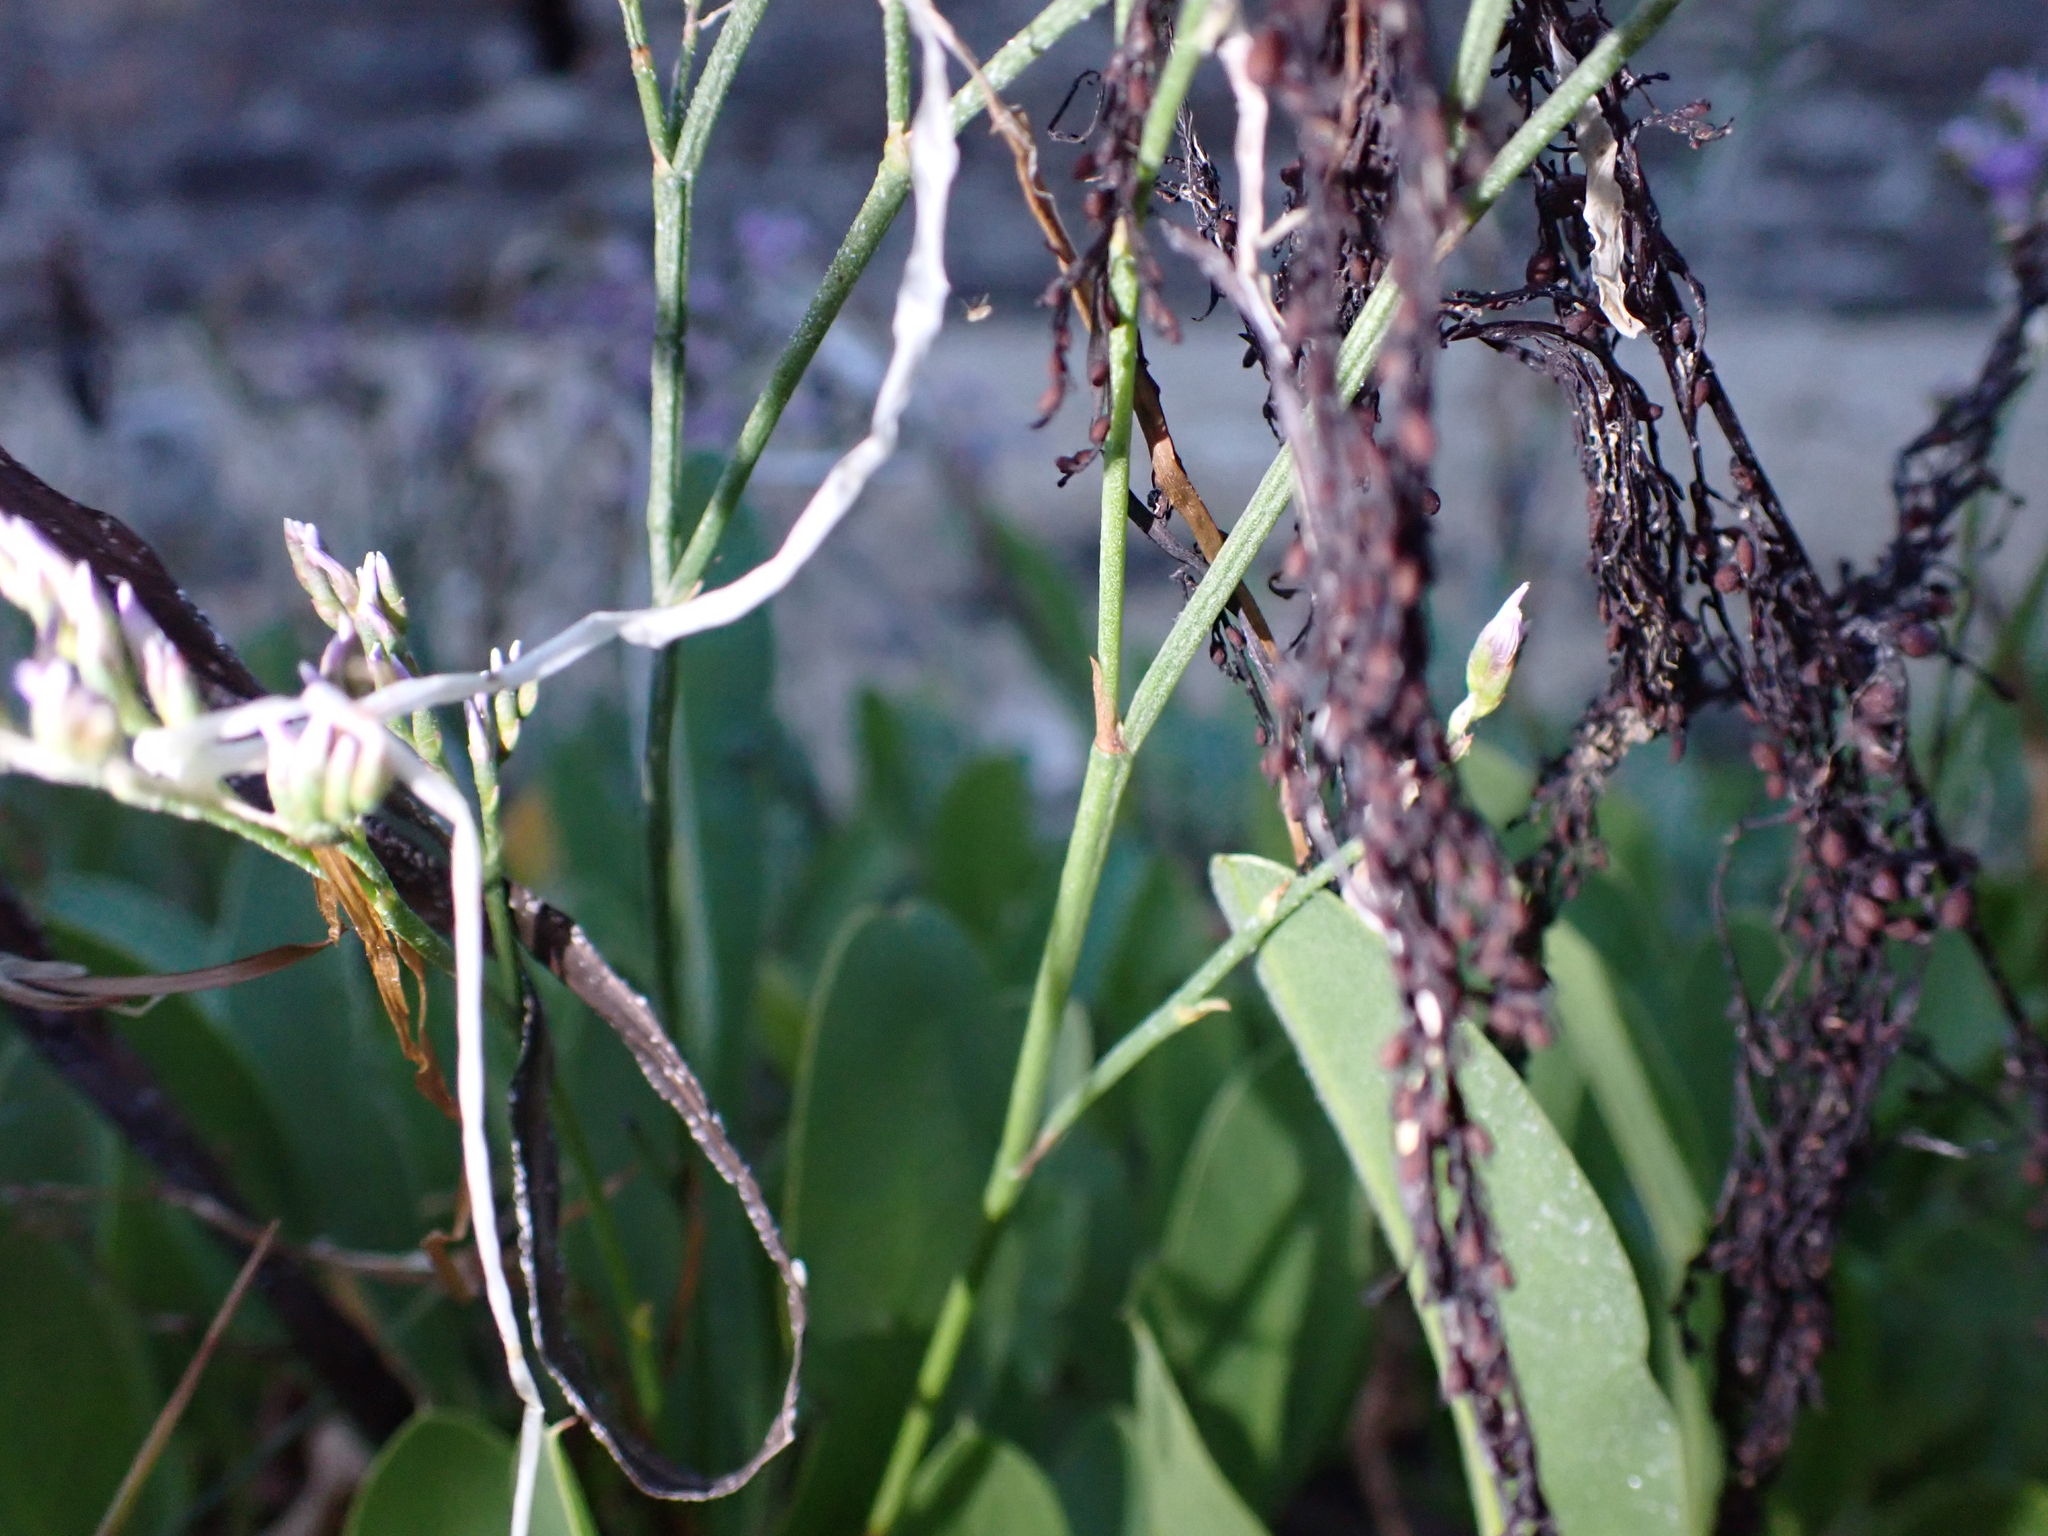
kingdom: Plantae
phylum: Tracheophyta
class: Magnoliopsida
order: Caryophyllales
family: Plumbaginaceae
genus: Limonium
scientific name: Limonium vulgare
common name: Common sea-lavender
